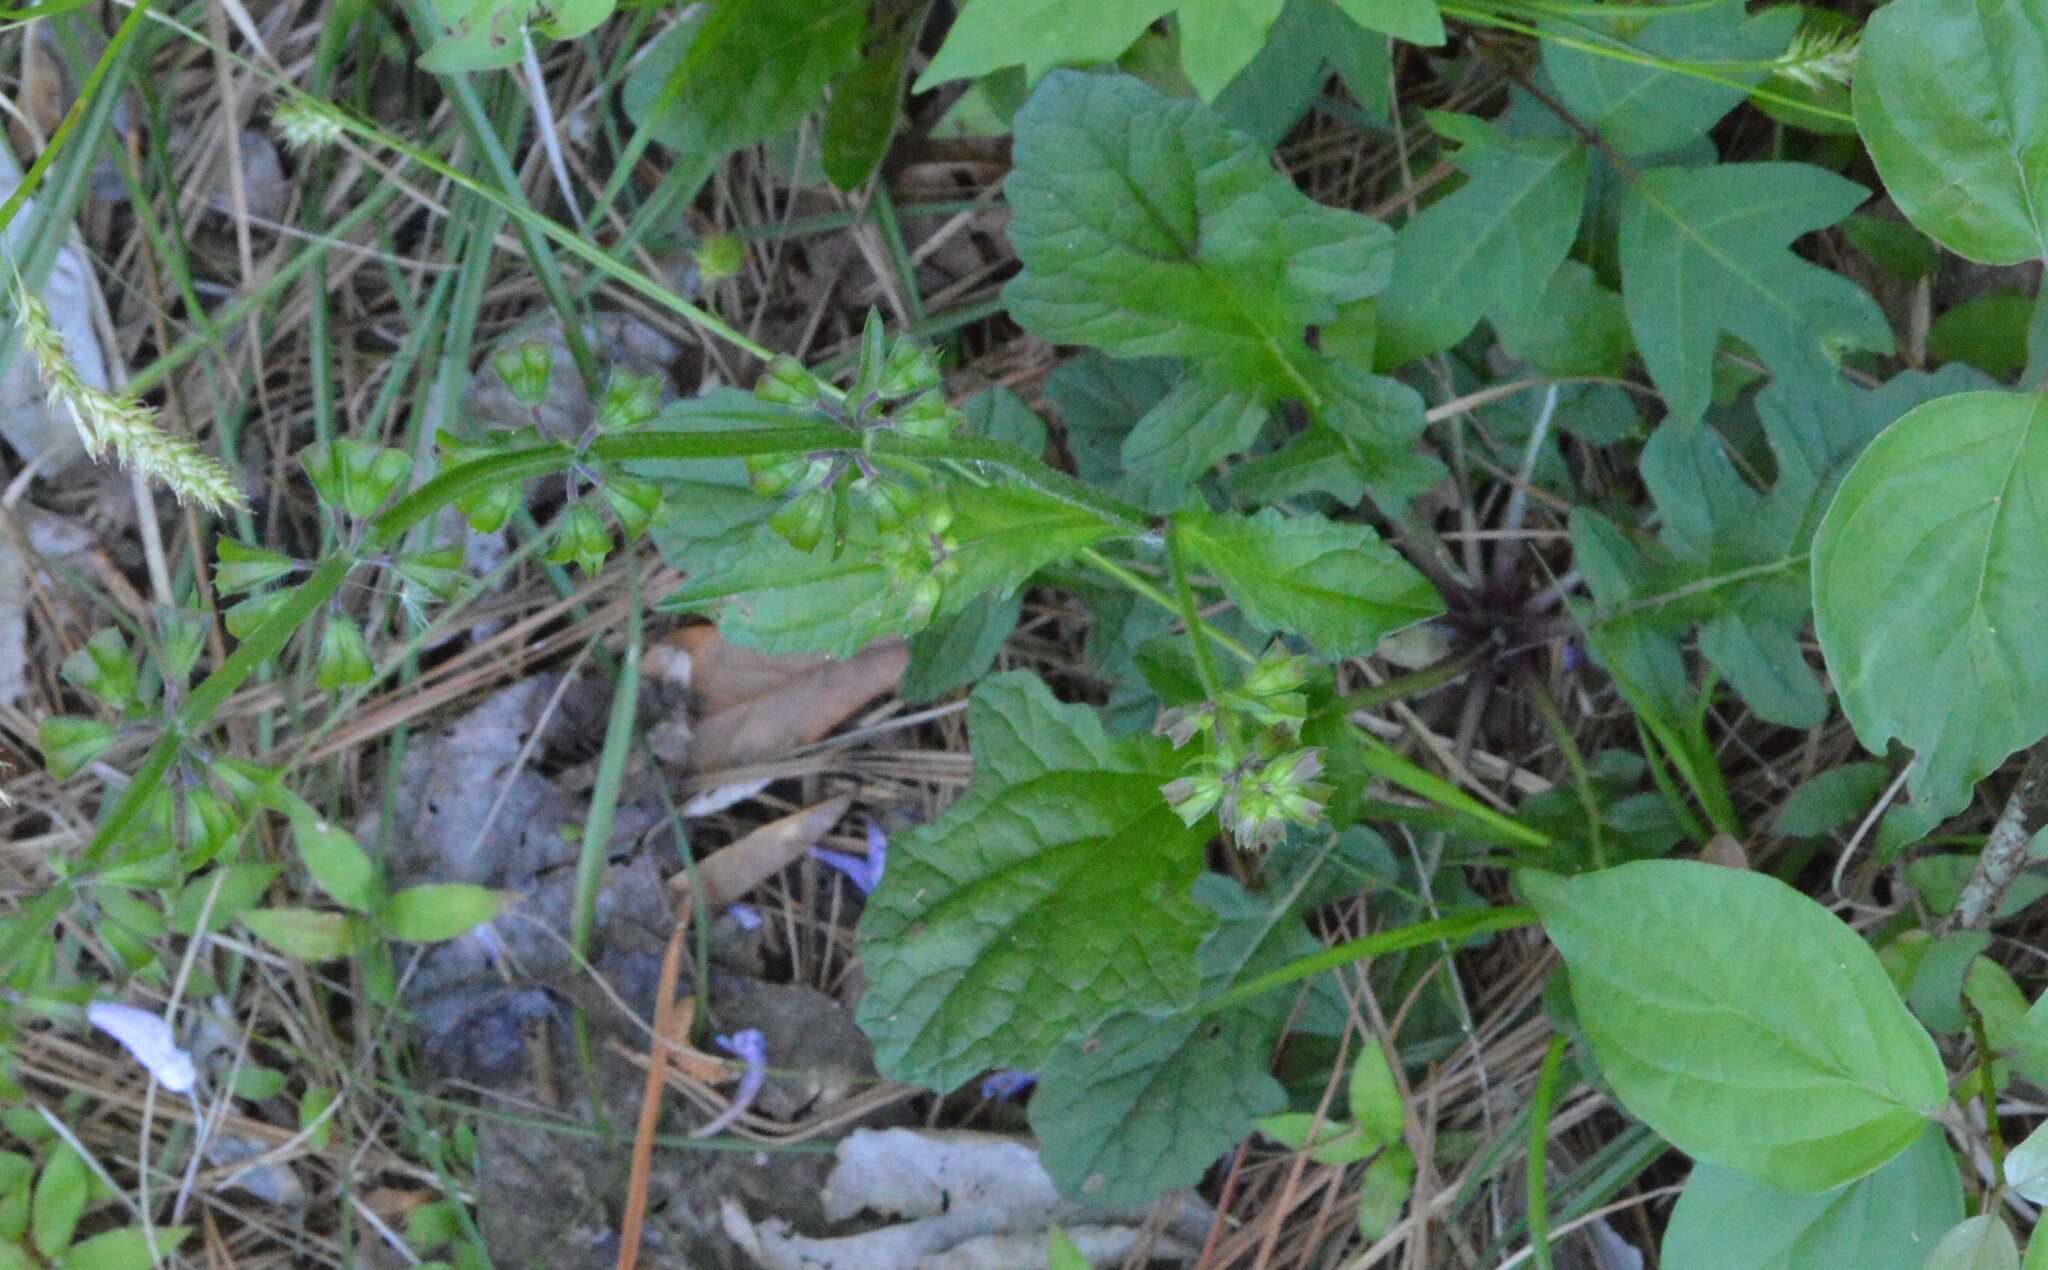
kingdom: Plantae
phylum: Tracheophyta
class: Magnoliopsida
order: Lamiales
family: Lamiaceae
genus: Salvia
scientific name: Salvia lyrata
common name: Cancerweed
